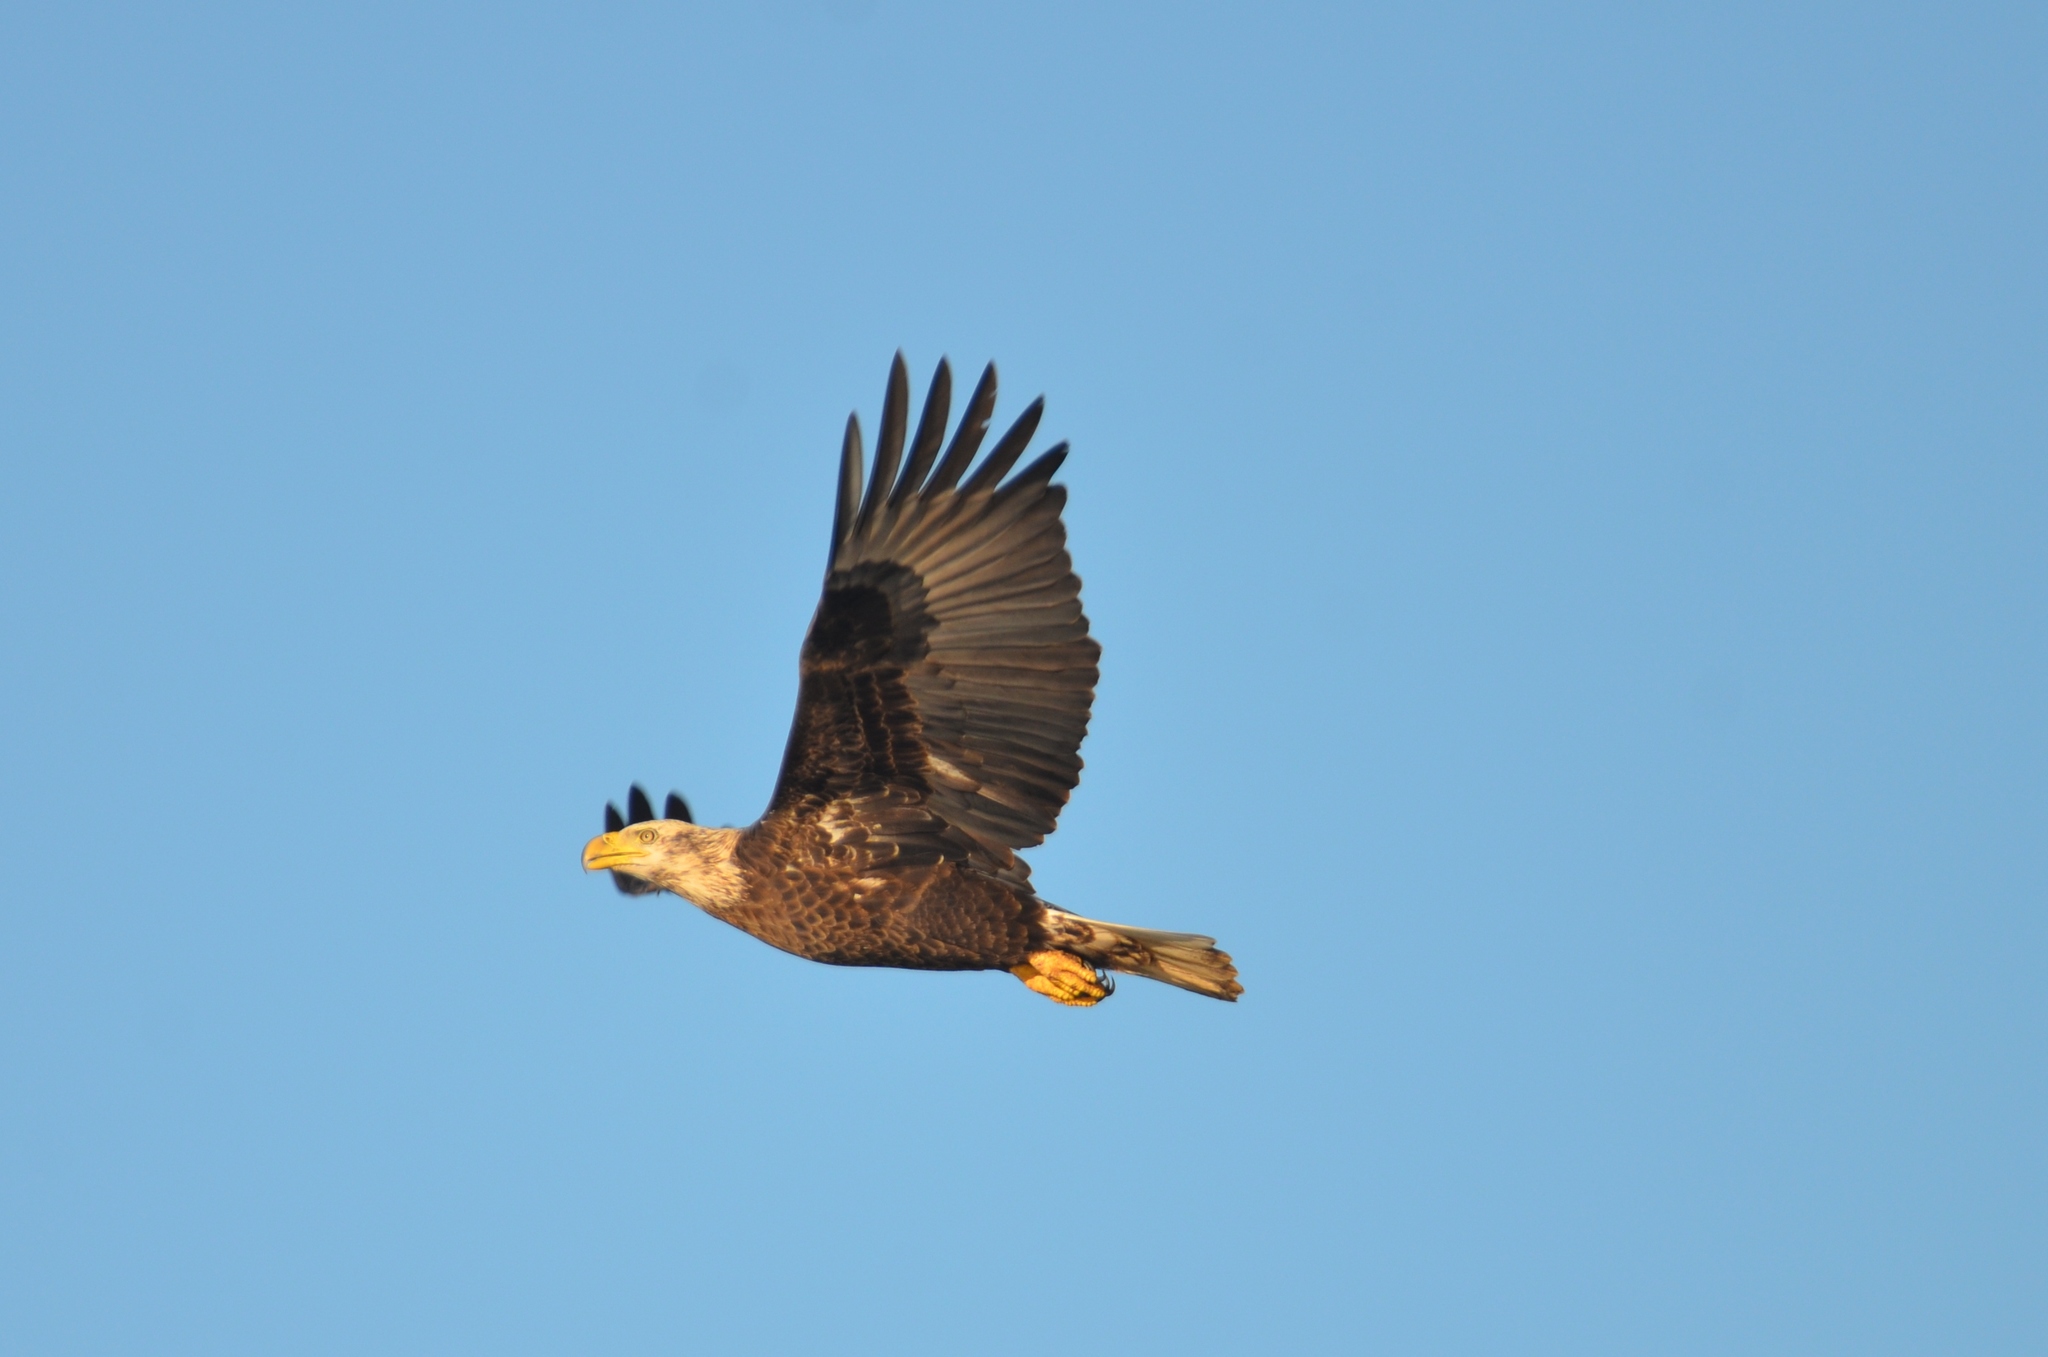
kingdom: Animalia
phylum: Chordata
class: Aves
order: Accipitriformes
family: Accipitridae
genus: Haliaeetus
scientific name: Haliaeetus leucocephalus
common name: Bald eagle
